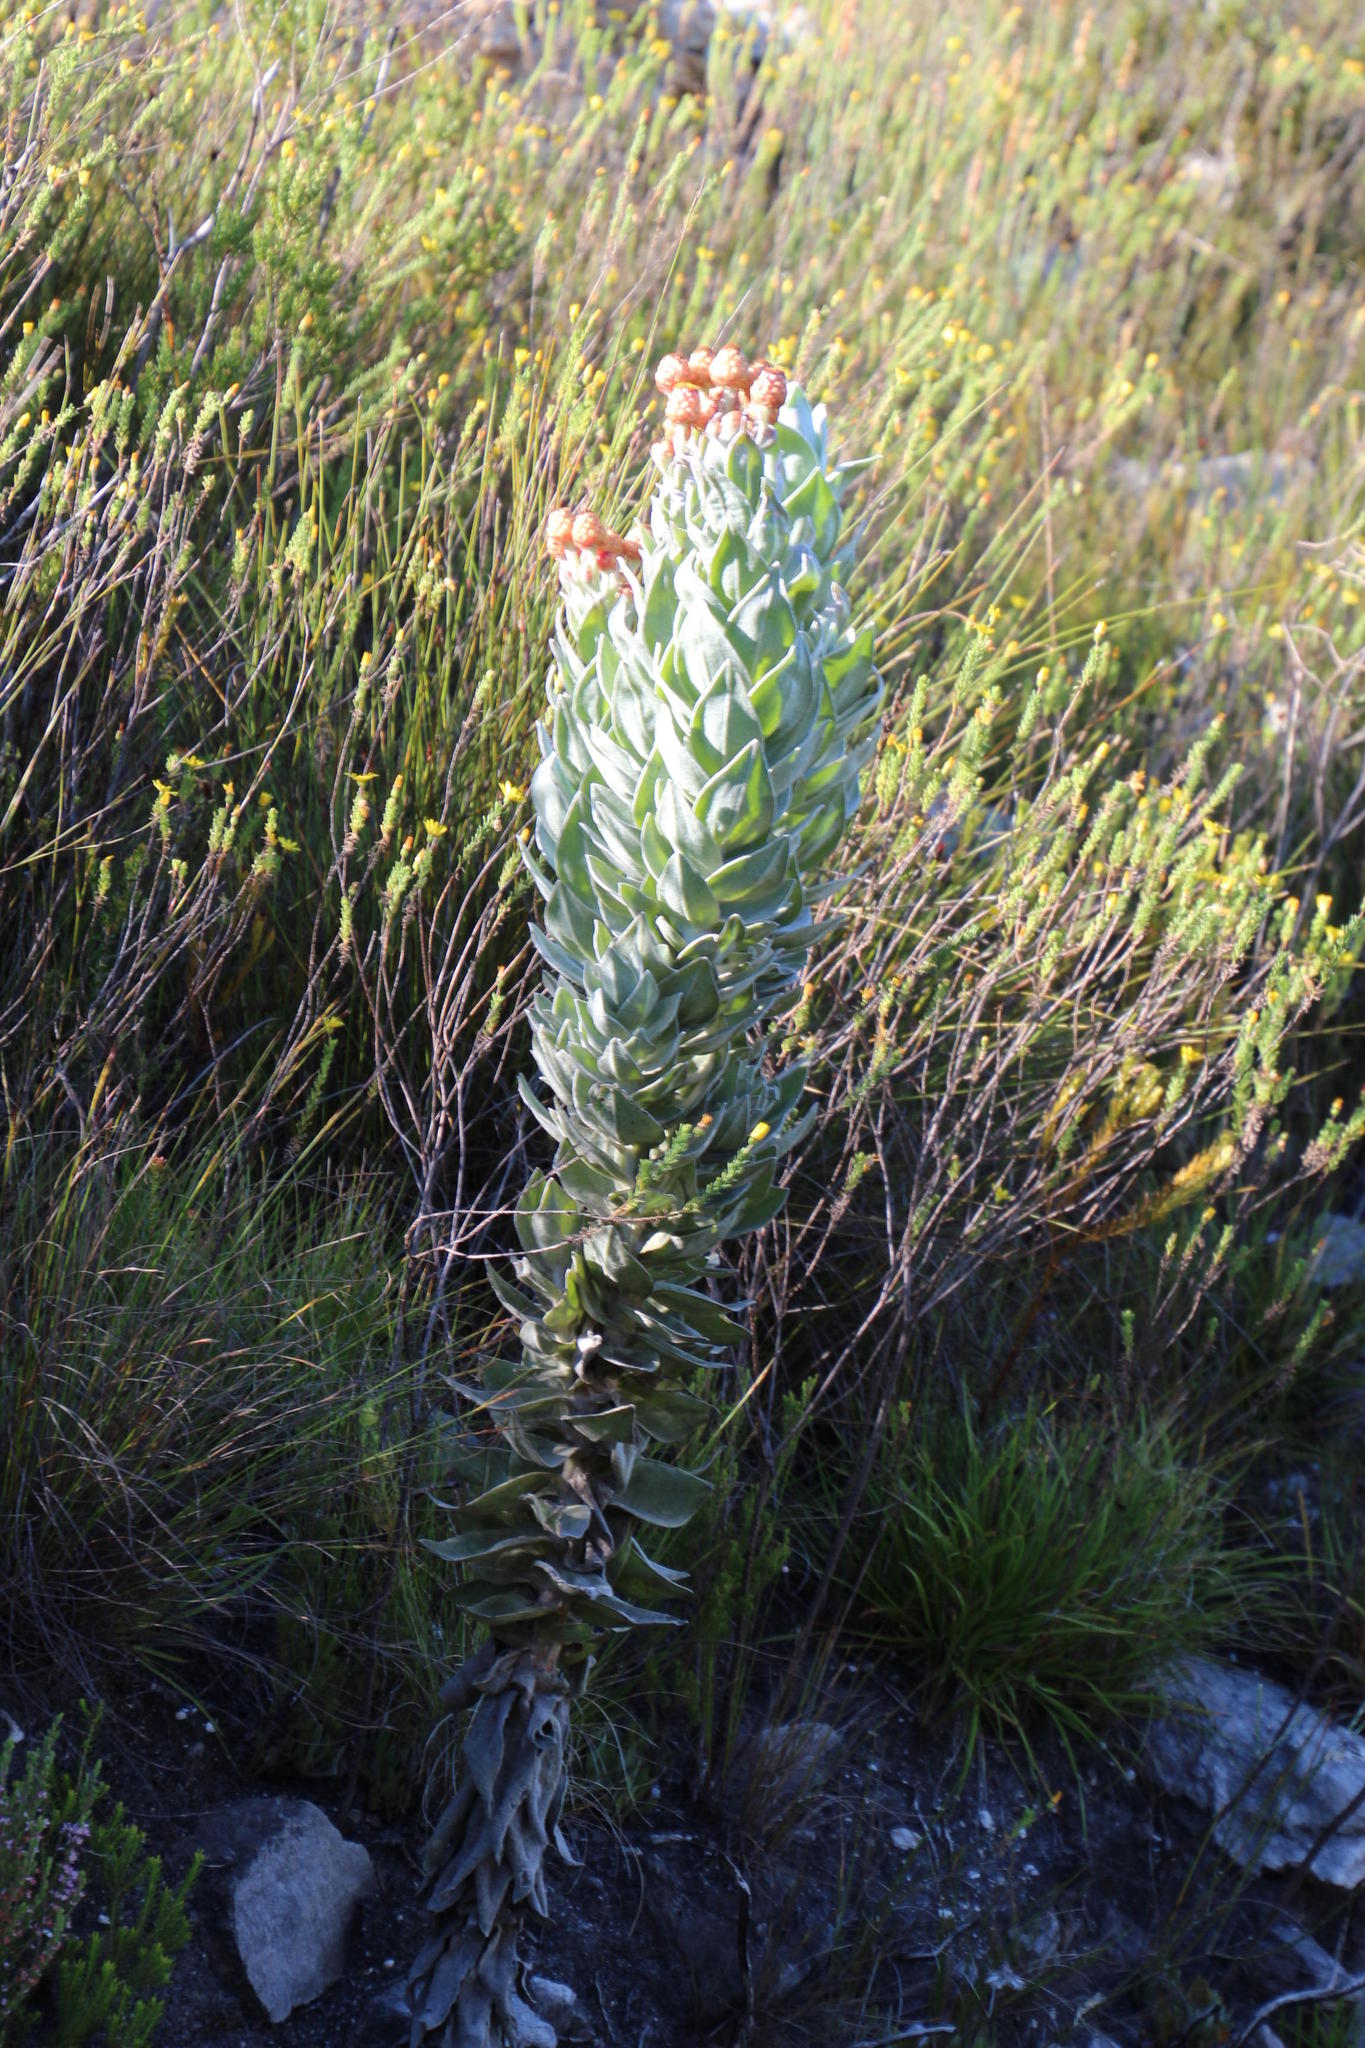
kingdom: Plantae
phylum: Tracheophyta
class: Magnoliopsida
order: Asterales
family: Asteraceae
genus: Syncarpha
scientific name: Syncarpha eximia
